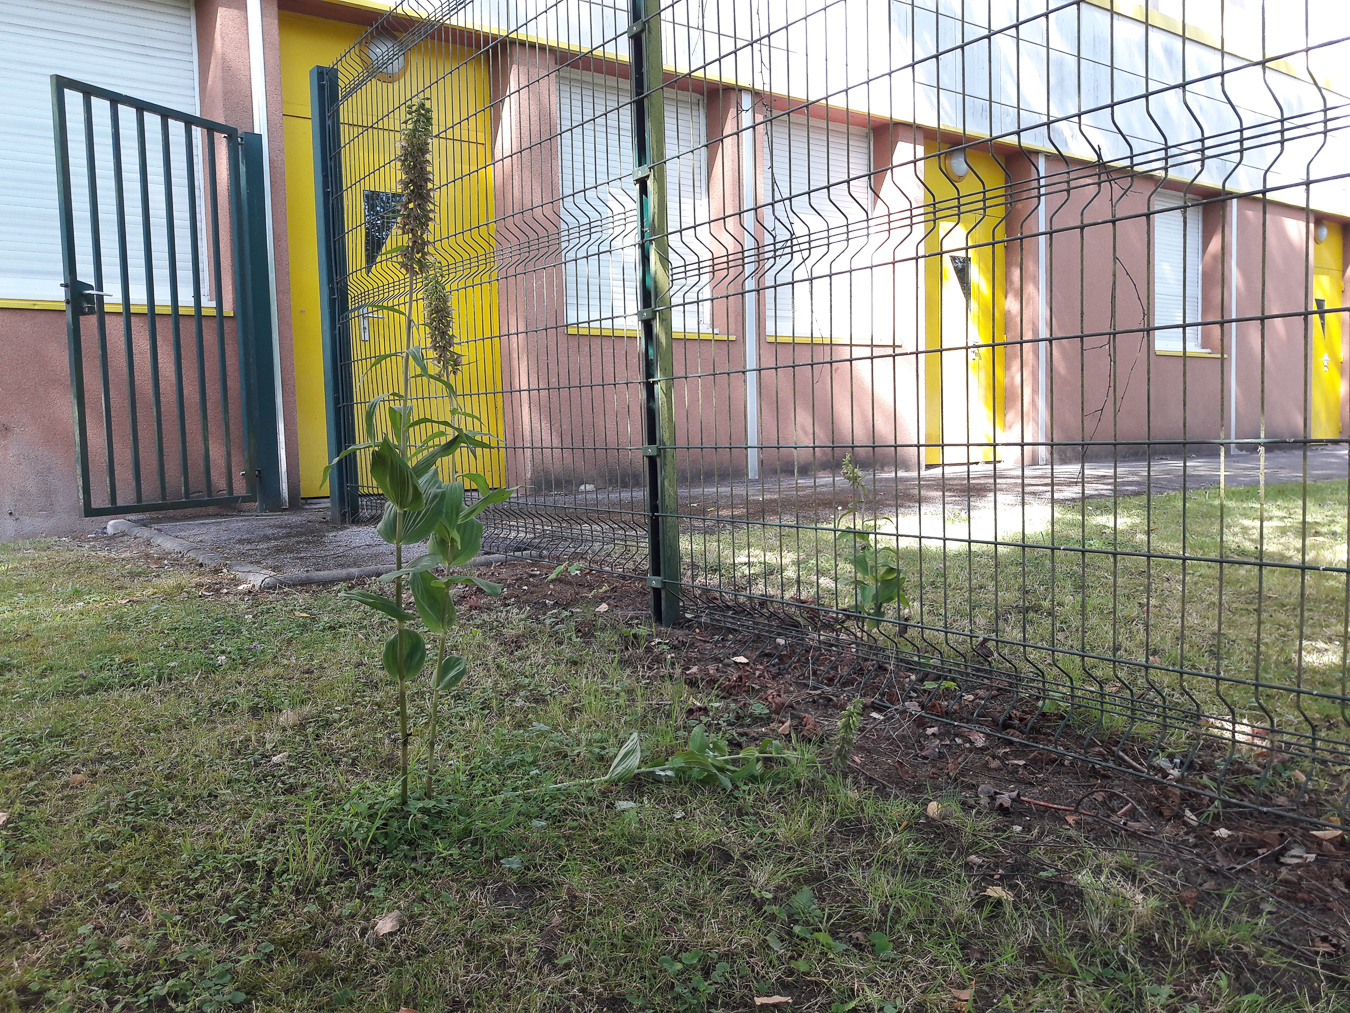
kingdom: Plantae
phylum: Tracheophyta
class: Liliopsida
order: Asparagales
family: Orchidaceae
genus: Epipactis
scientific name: Epipactis helleborine
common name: Broad-leaved helleborine
